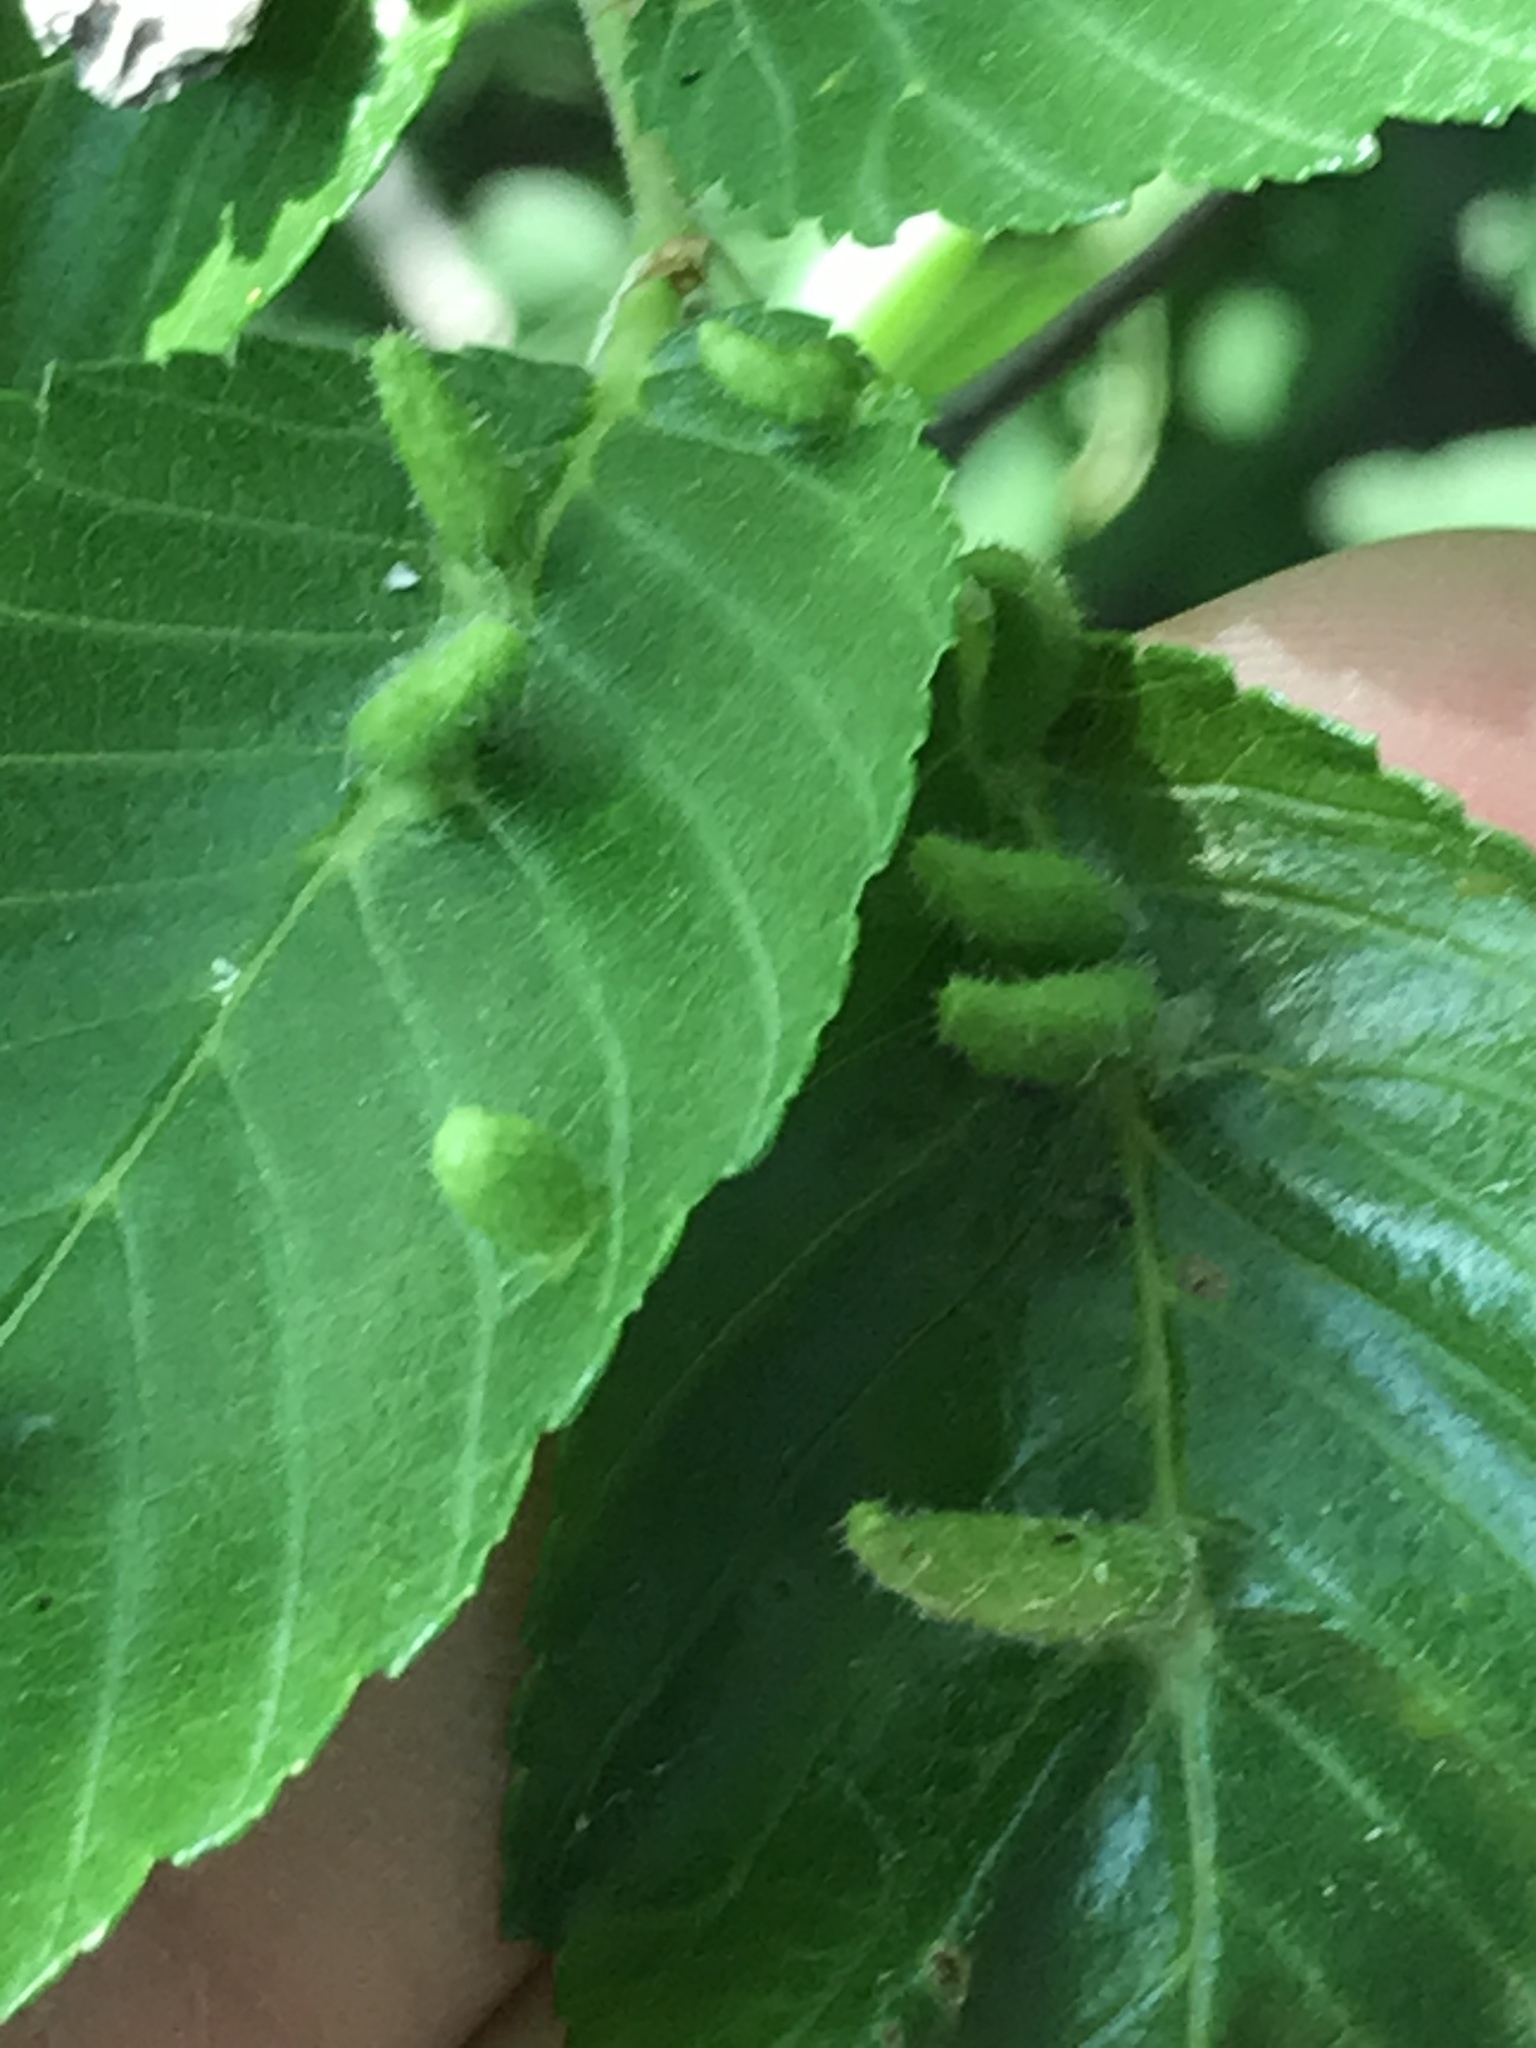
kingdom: Animalia
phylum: Arthropoda
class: Arachnida
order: Trombidiformes
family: Eriophyidae
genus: Aceria
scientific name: Aceria
